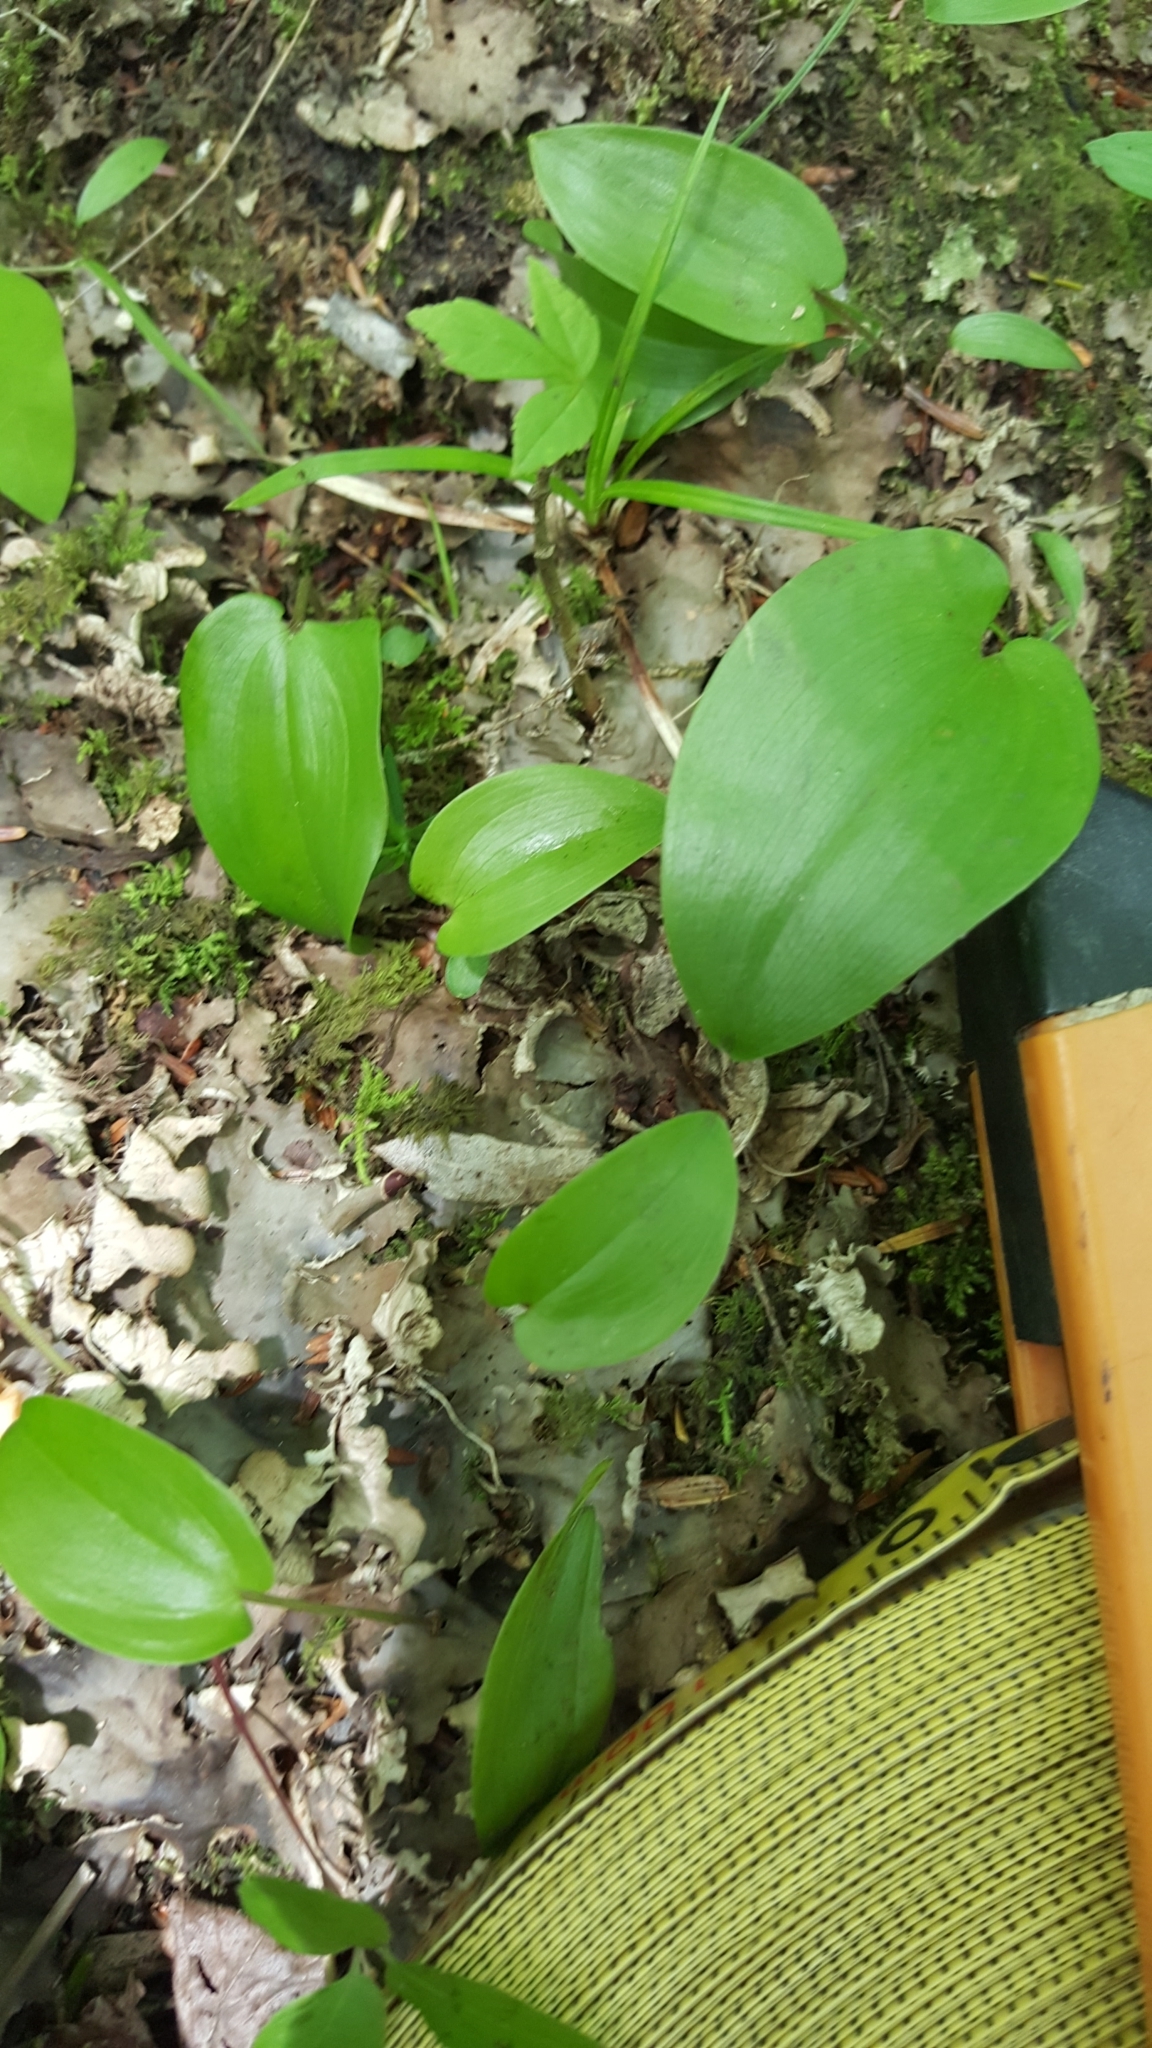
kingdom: Plantae
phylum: Tracheophyta
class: Liliopsida
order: Asparagales
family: Asparagaceae
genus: Maianthemum
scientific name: Maianthemum canadense
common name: False lily-of-the-valley
